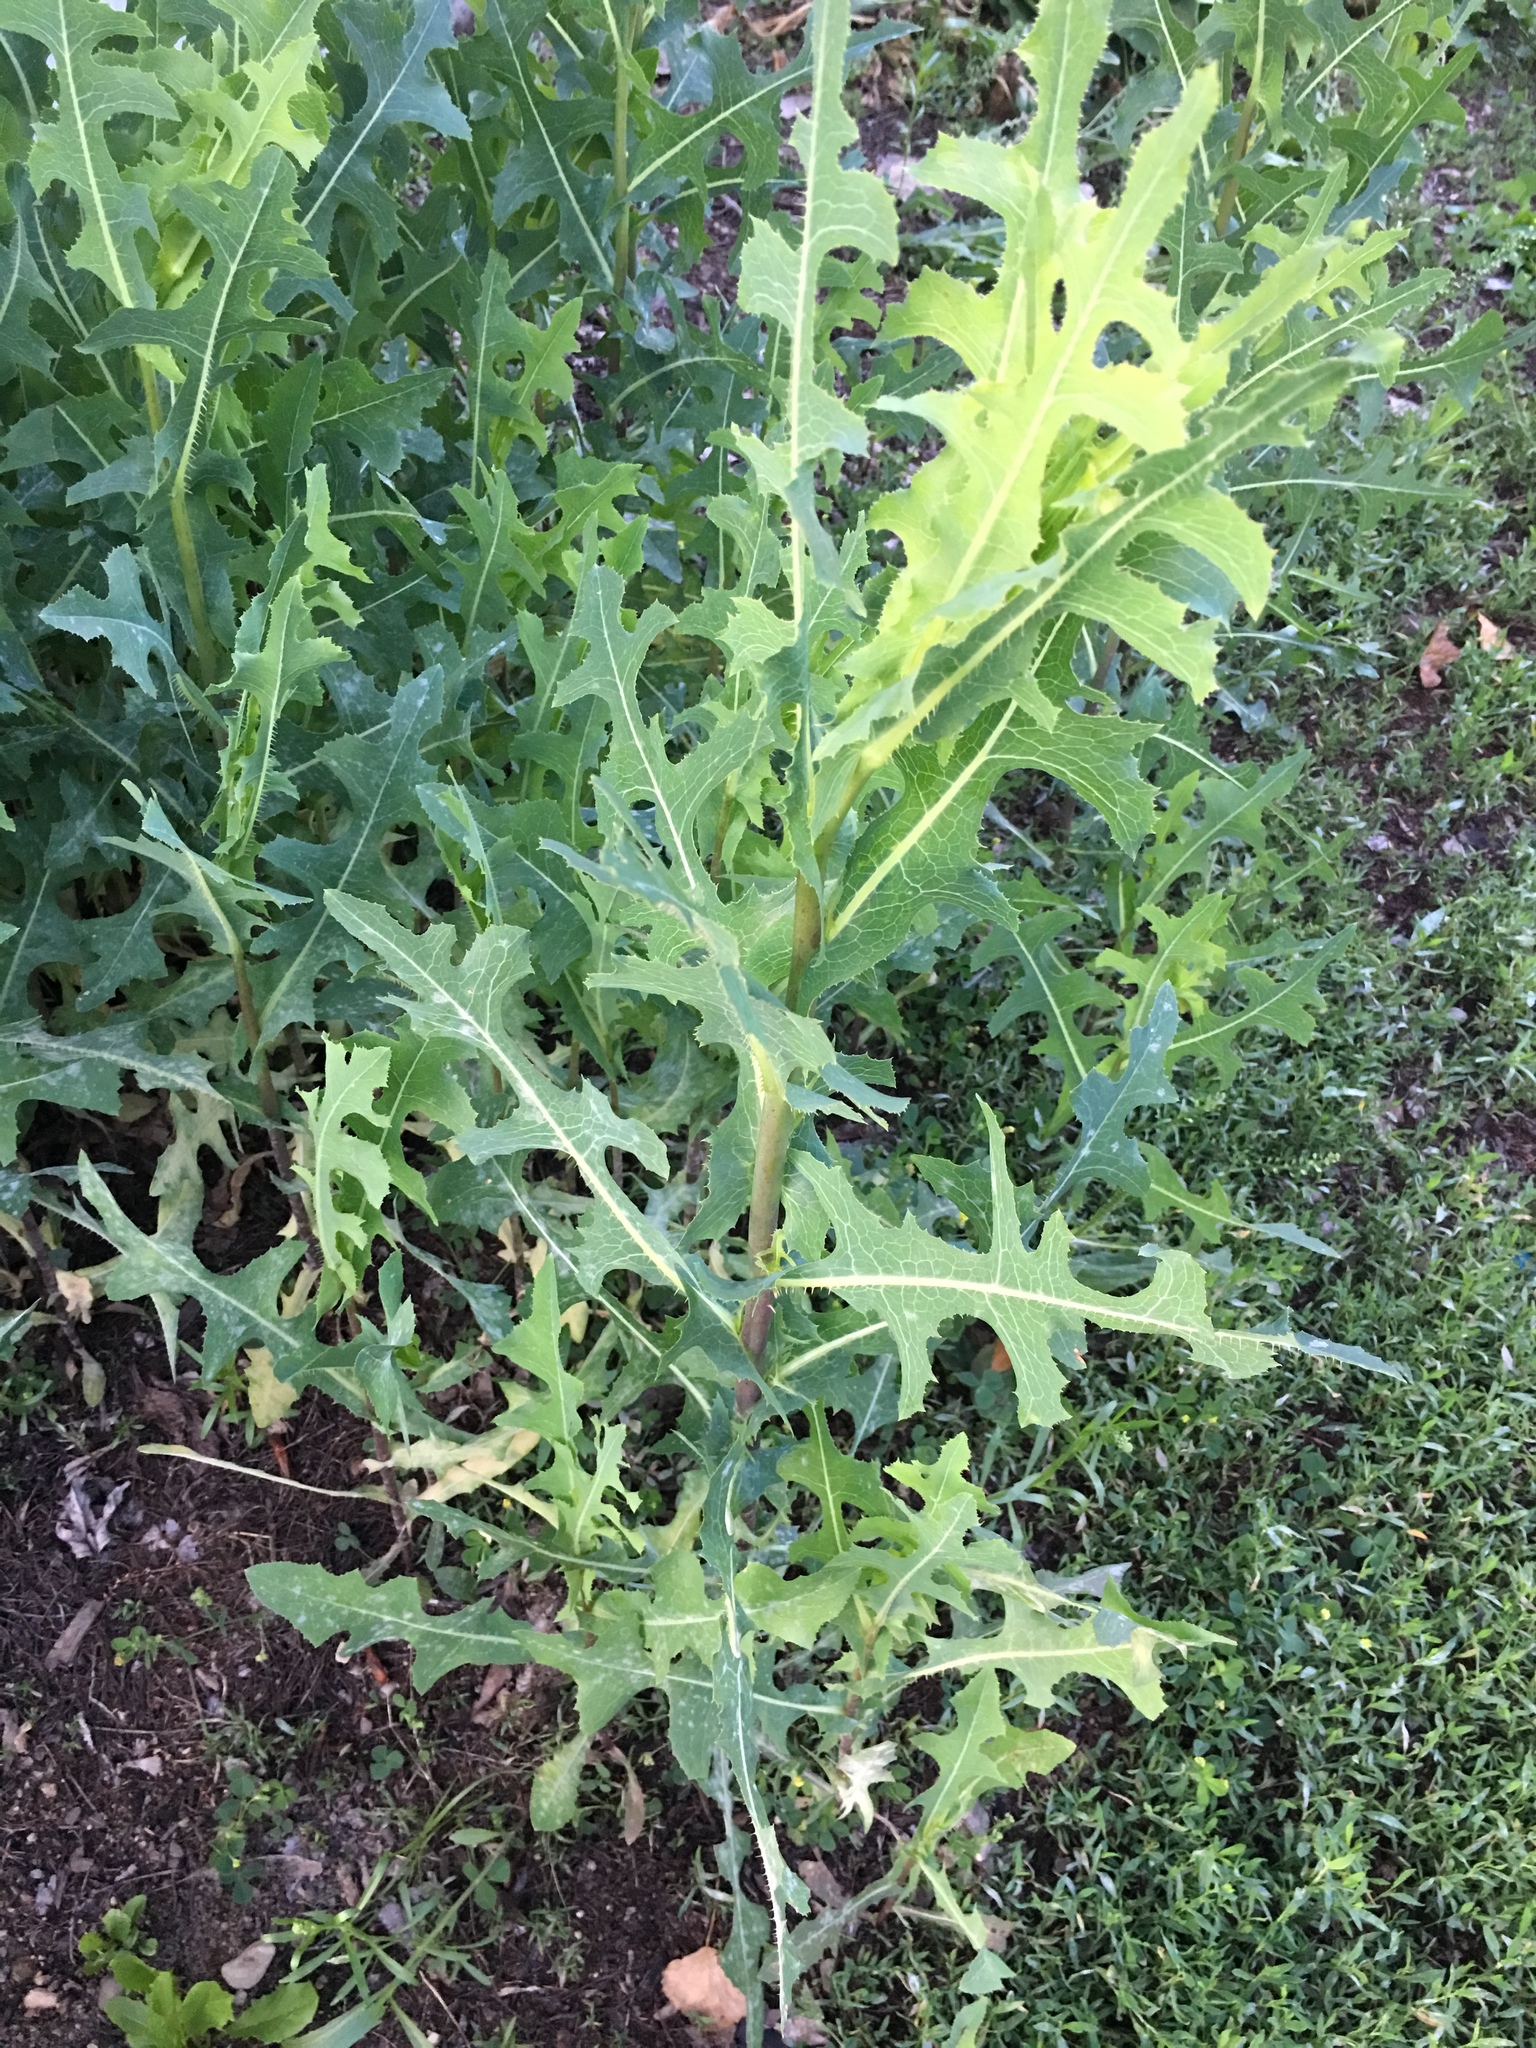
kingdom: Plantae
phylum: Tracheophyta
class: Magnoliopsida
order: Asterales
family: Asteraceae
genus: Lactuca
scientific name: Lactuca serriola
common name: Prickly lettuce
